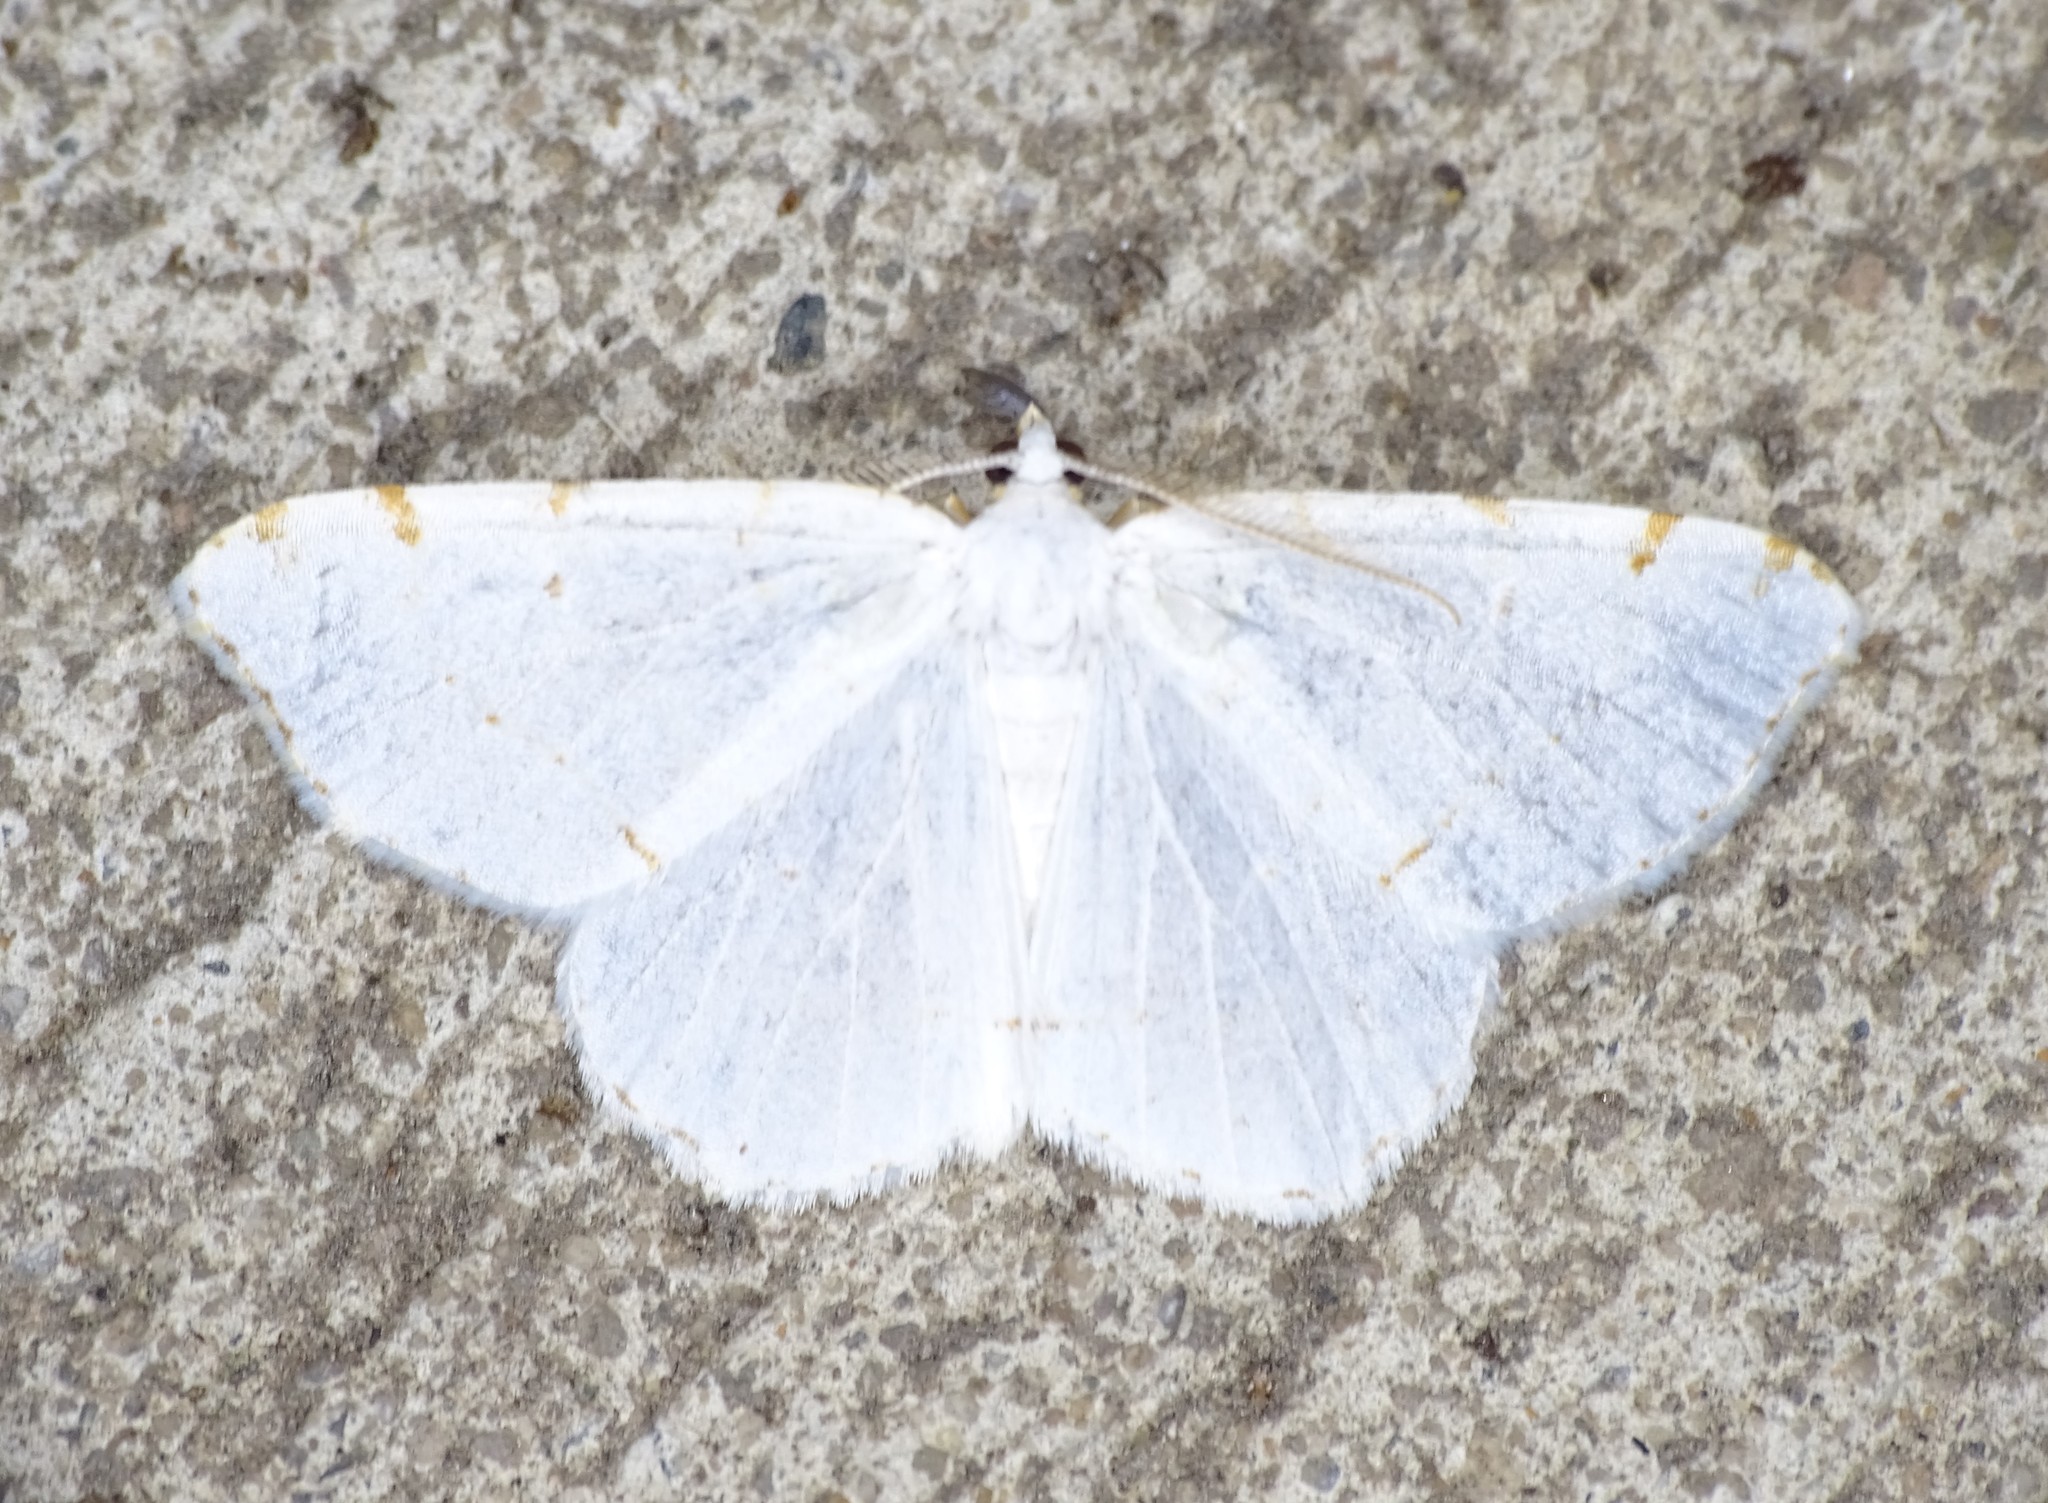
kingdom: Animalia
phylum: Arthropoda
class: Insecta
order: Lepidoptera
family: Geometridae
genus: Macaria
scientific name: Macaria pustularia
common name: Lesser maple spanworm moth
